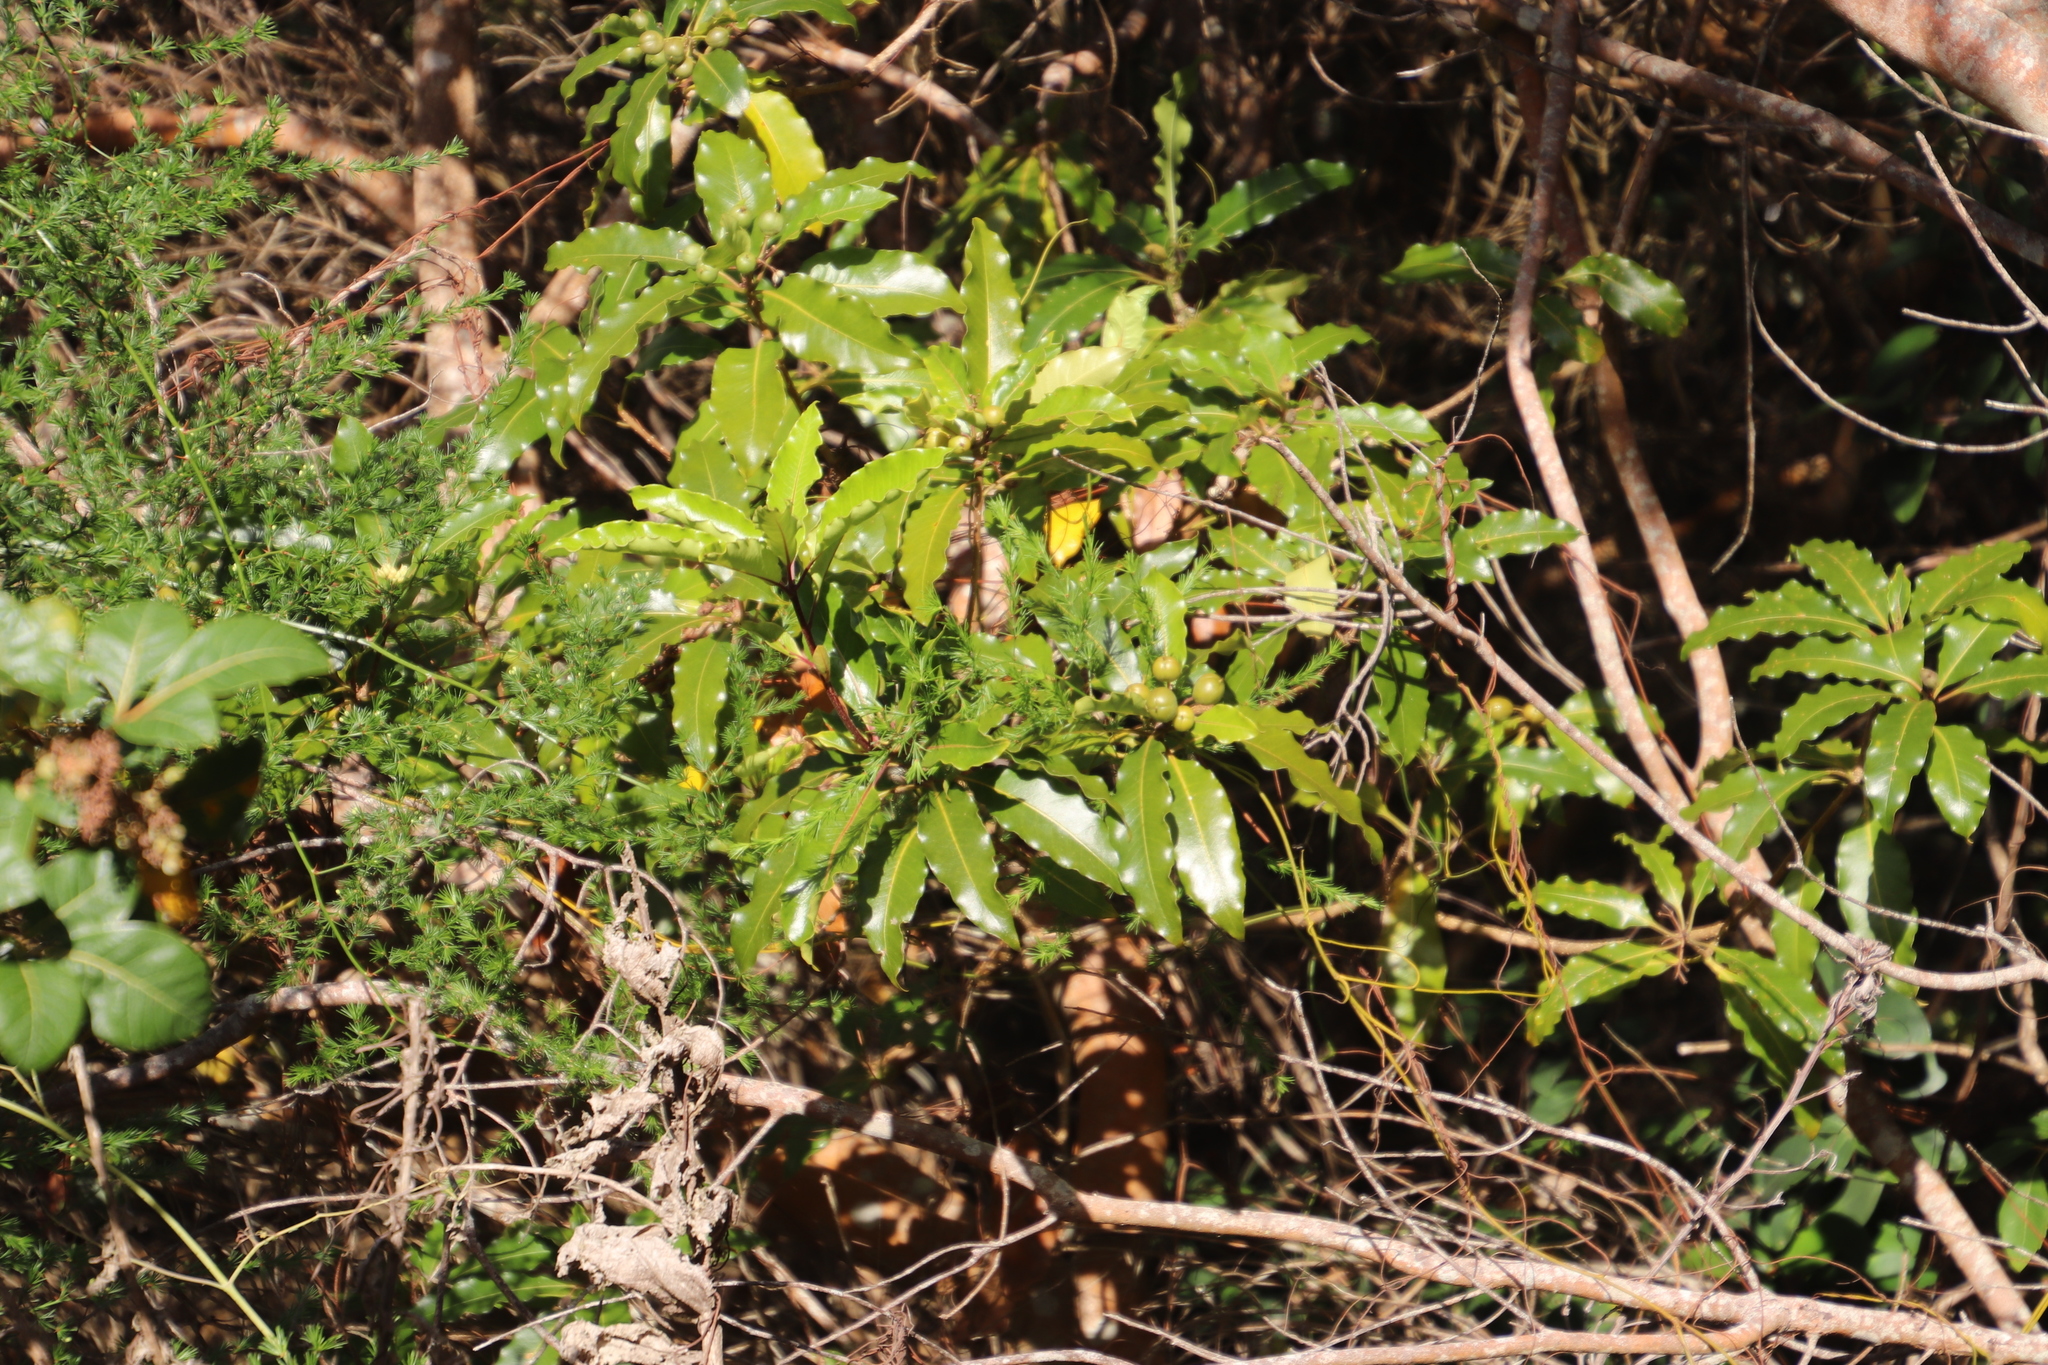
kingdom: Plantae
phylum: Tracheophyta
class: Magnoliopsida
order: Apiales
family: Pittosporaceae
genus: Pittosporum
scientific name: Pittosporum undulatum
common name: Australian cheesewood
